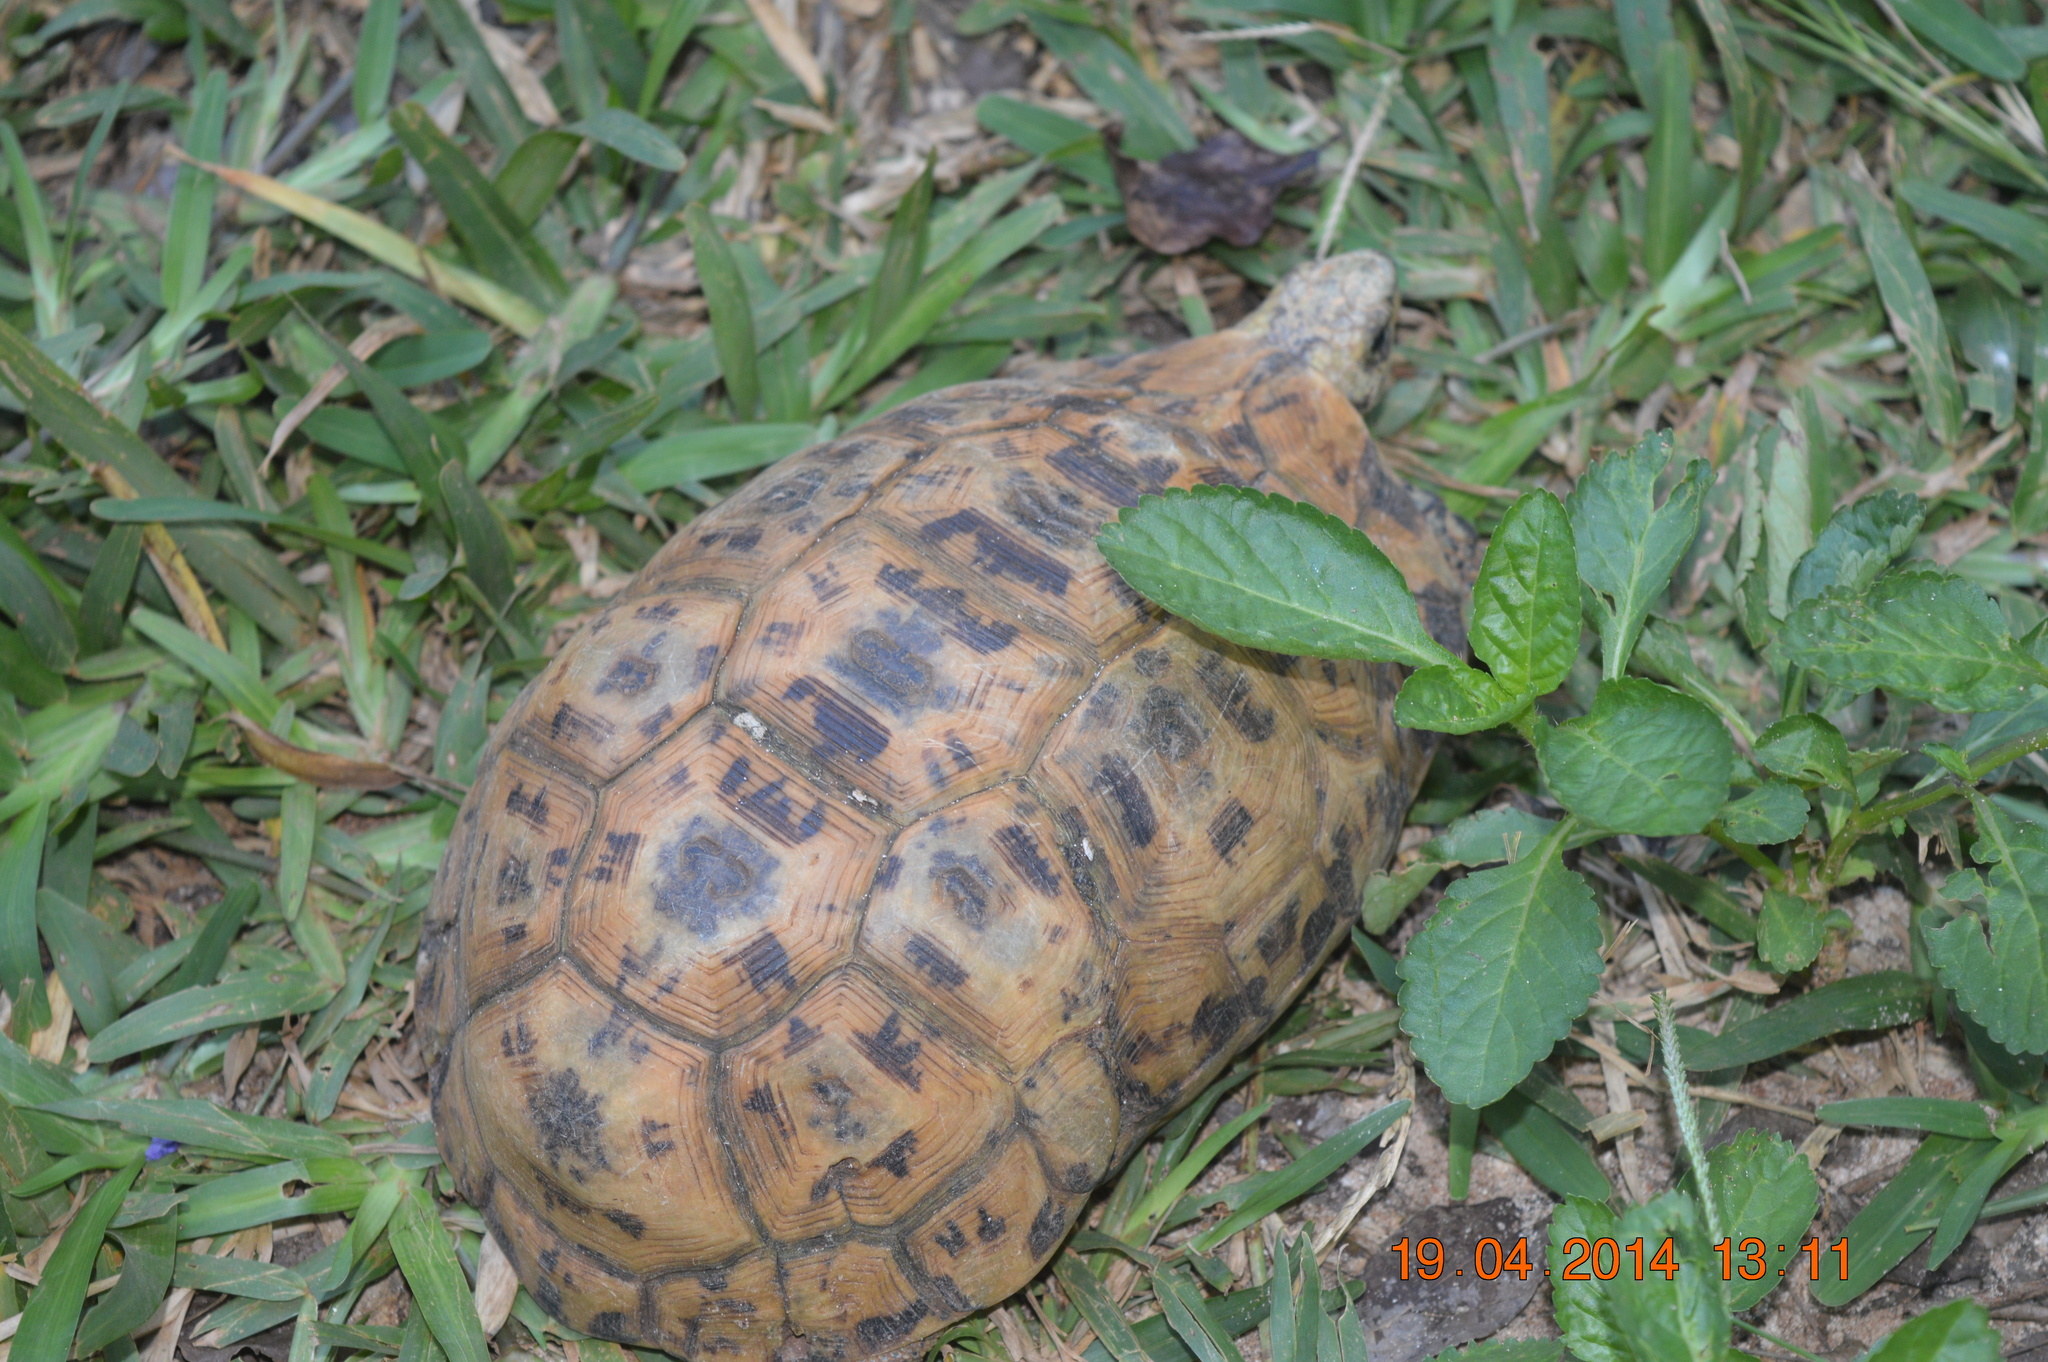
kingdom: Animalia
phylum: Chordata
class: Testudines
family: Testudinidae
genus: Kinixys
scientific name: Kinixys zombensis
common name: Southeastern hinge-back tortoise
